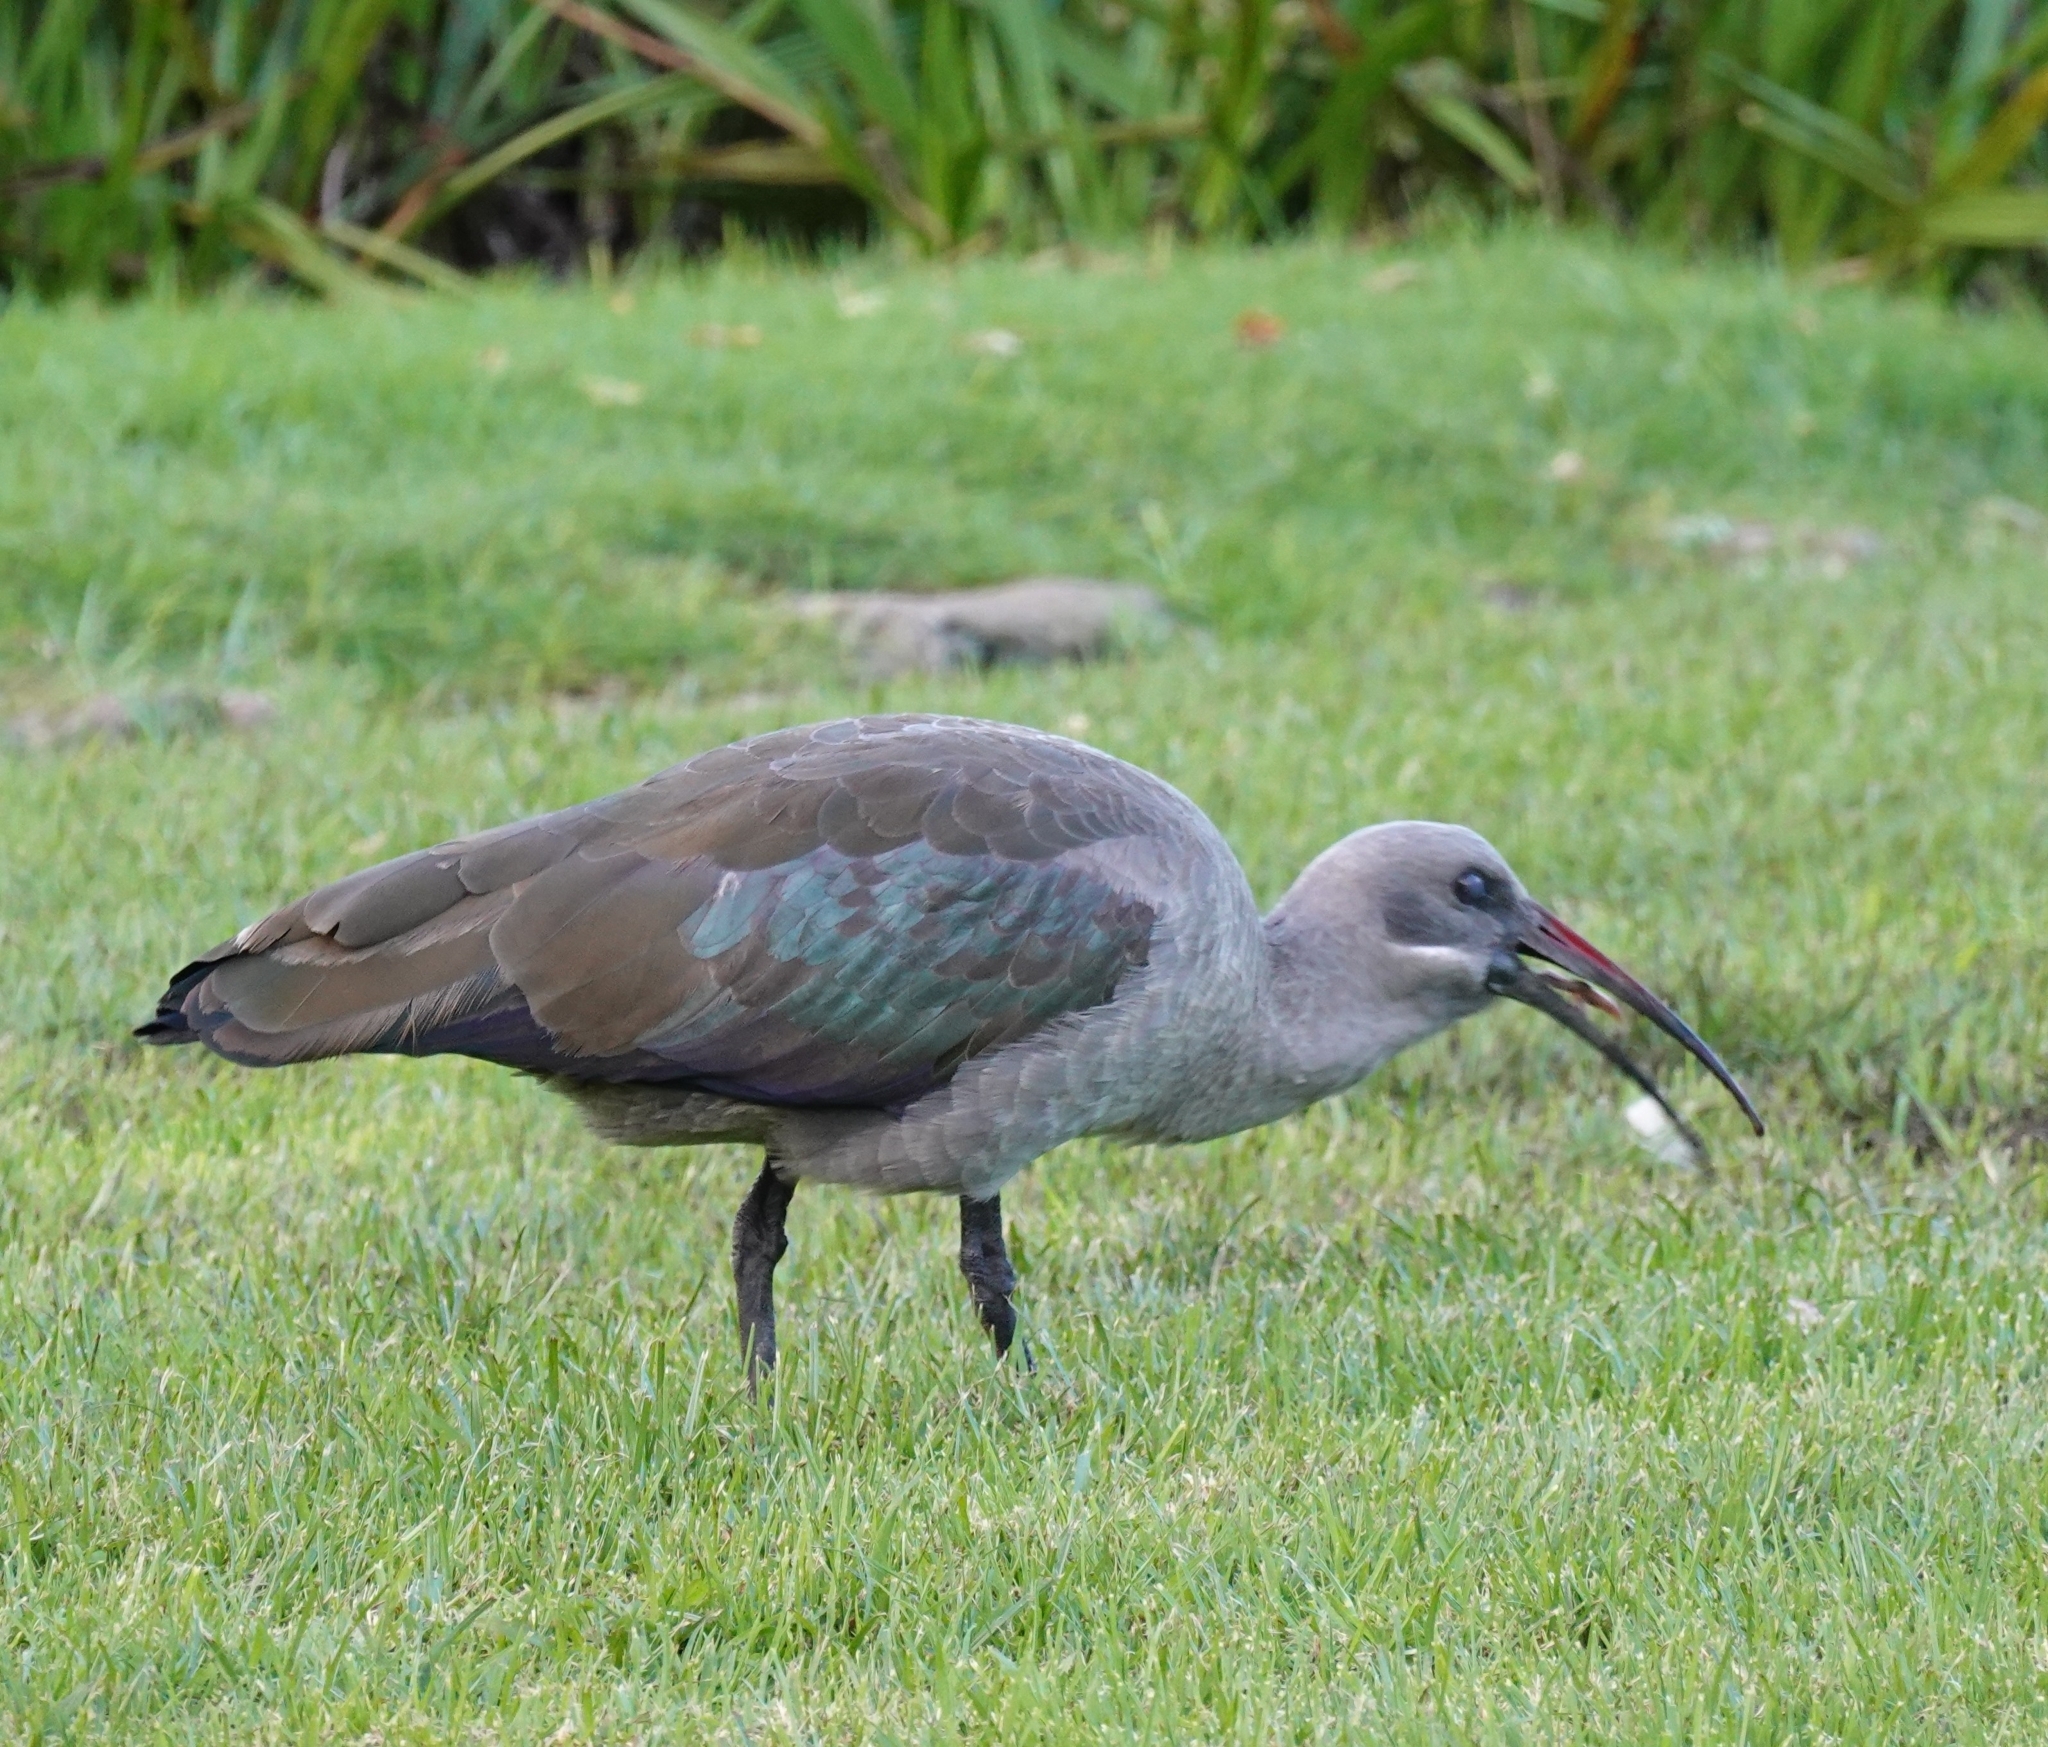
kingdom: Animalia
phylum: Chordata
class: Aves
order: Pelecaniformes
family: Threskiornithidae
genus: Bostrychia
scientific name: Bostrychia hagedash
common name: Hadada ibis
